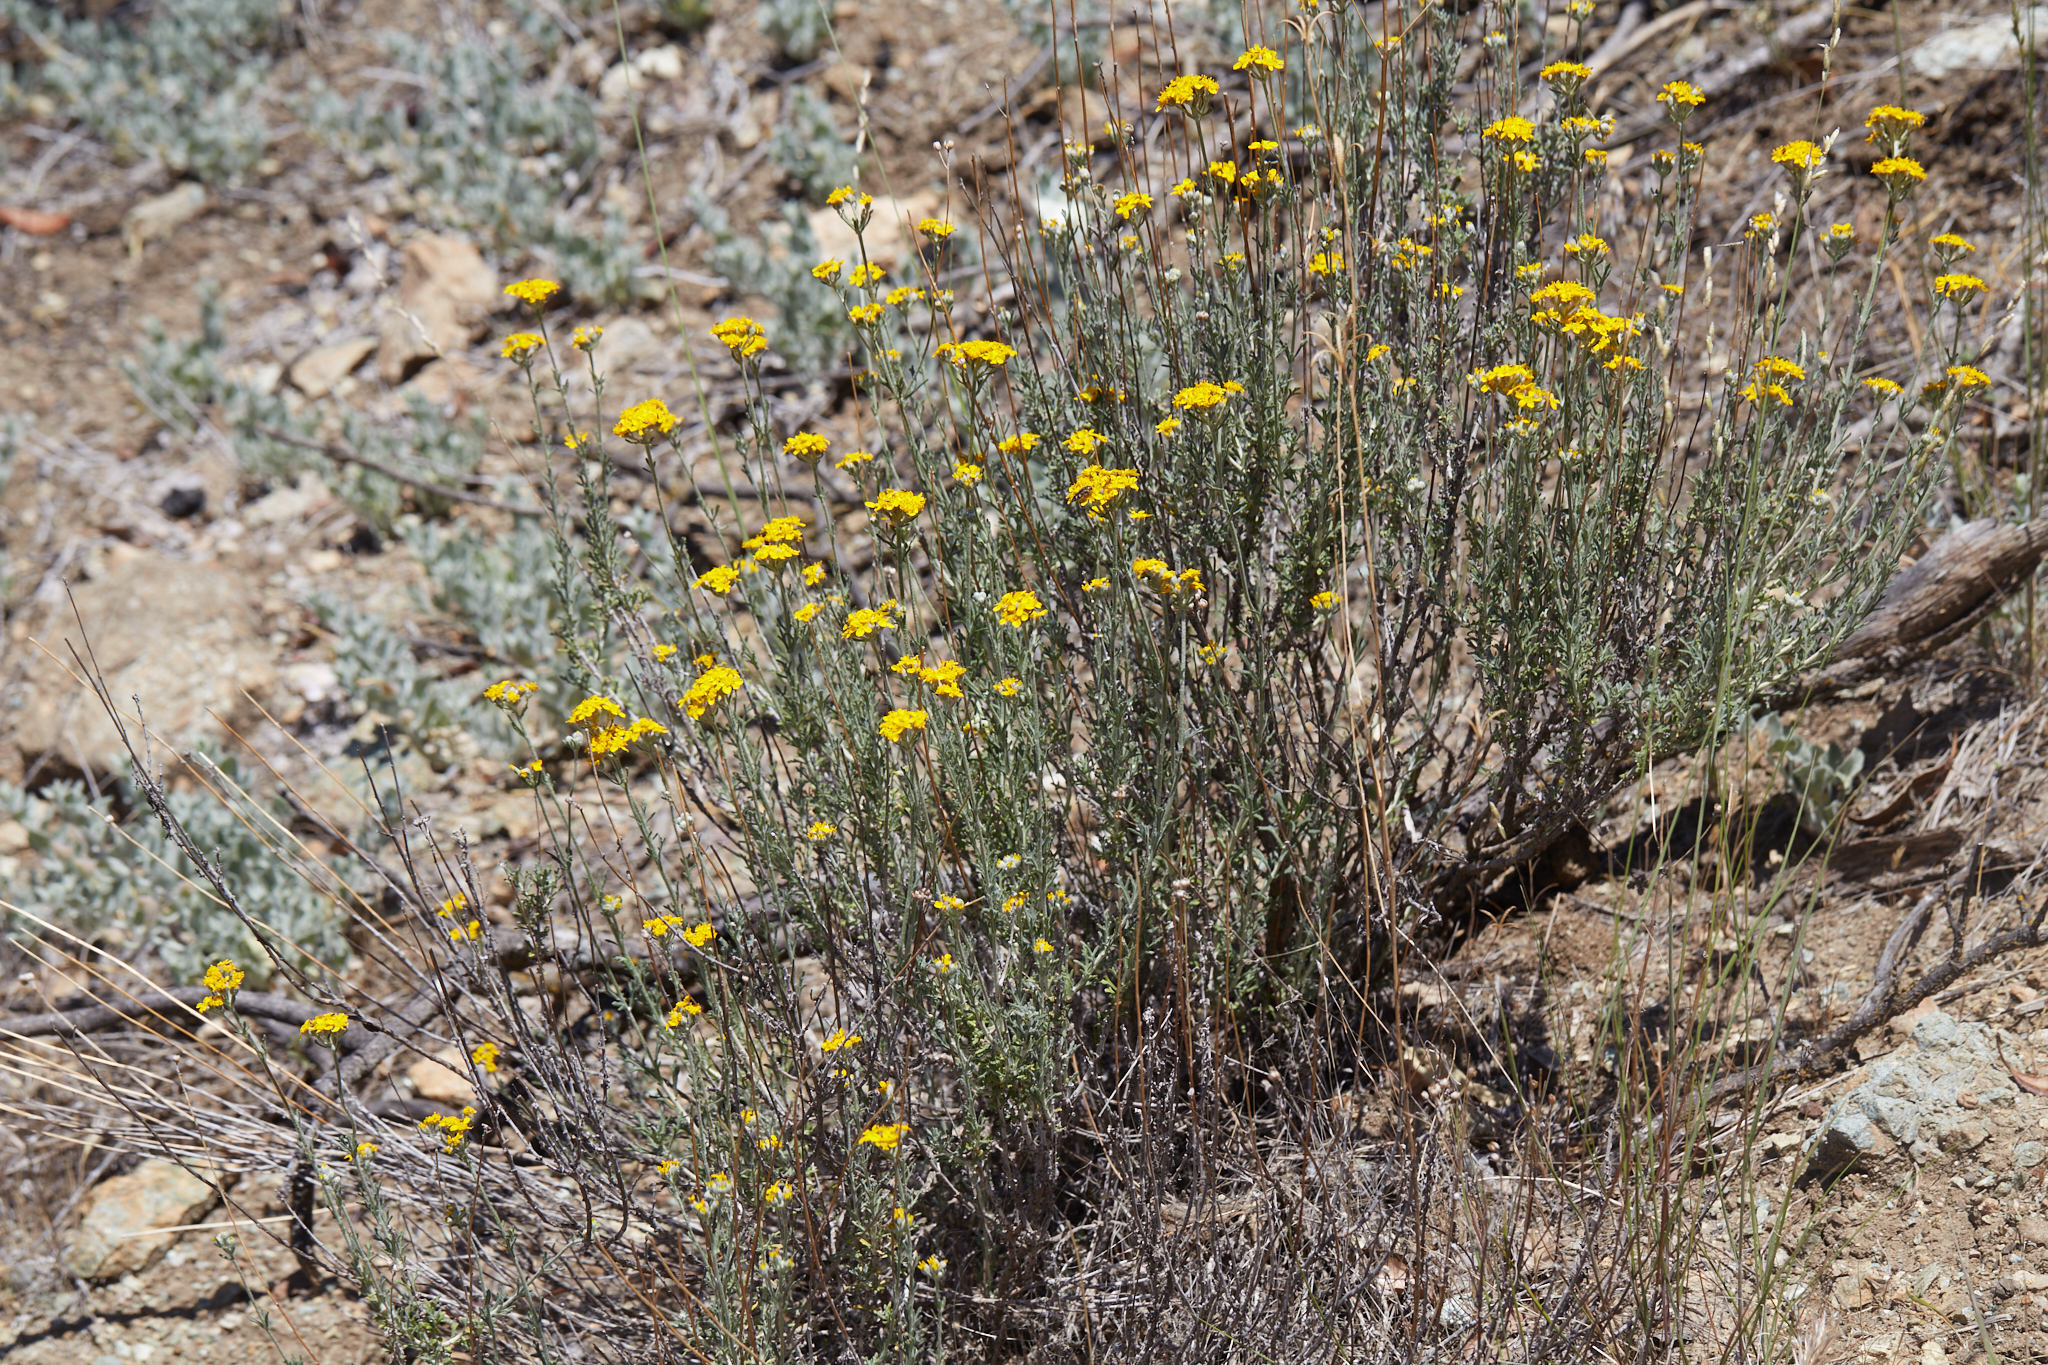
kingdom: Plantae
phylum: Tracheophyta
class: Magnoliopsida
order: Asterales
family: Asteraceae
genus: Eriophyllum
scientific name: Eriophyllum confertiflorum
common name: Golden-yarrow
